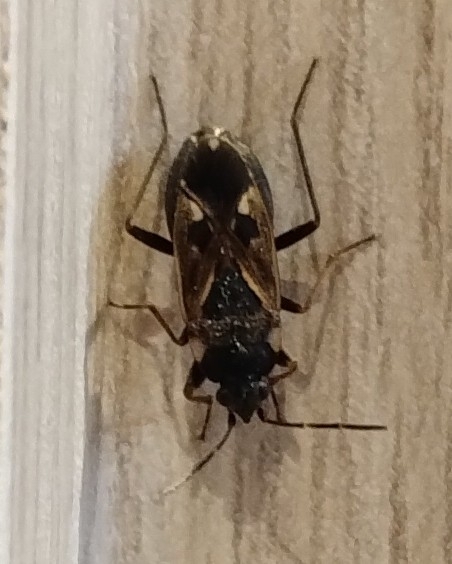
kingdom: Animalia
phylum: Arthropoda
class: Insecta
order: Hemiptera
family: Rhyparochromidae
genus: Rhyparochromus
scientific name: Rhyparochromus vulgaris
